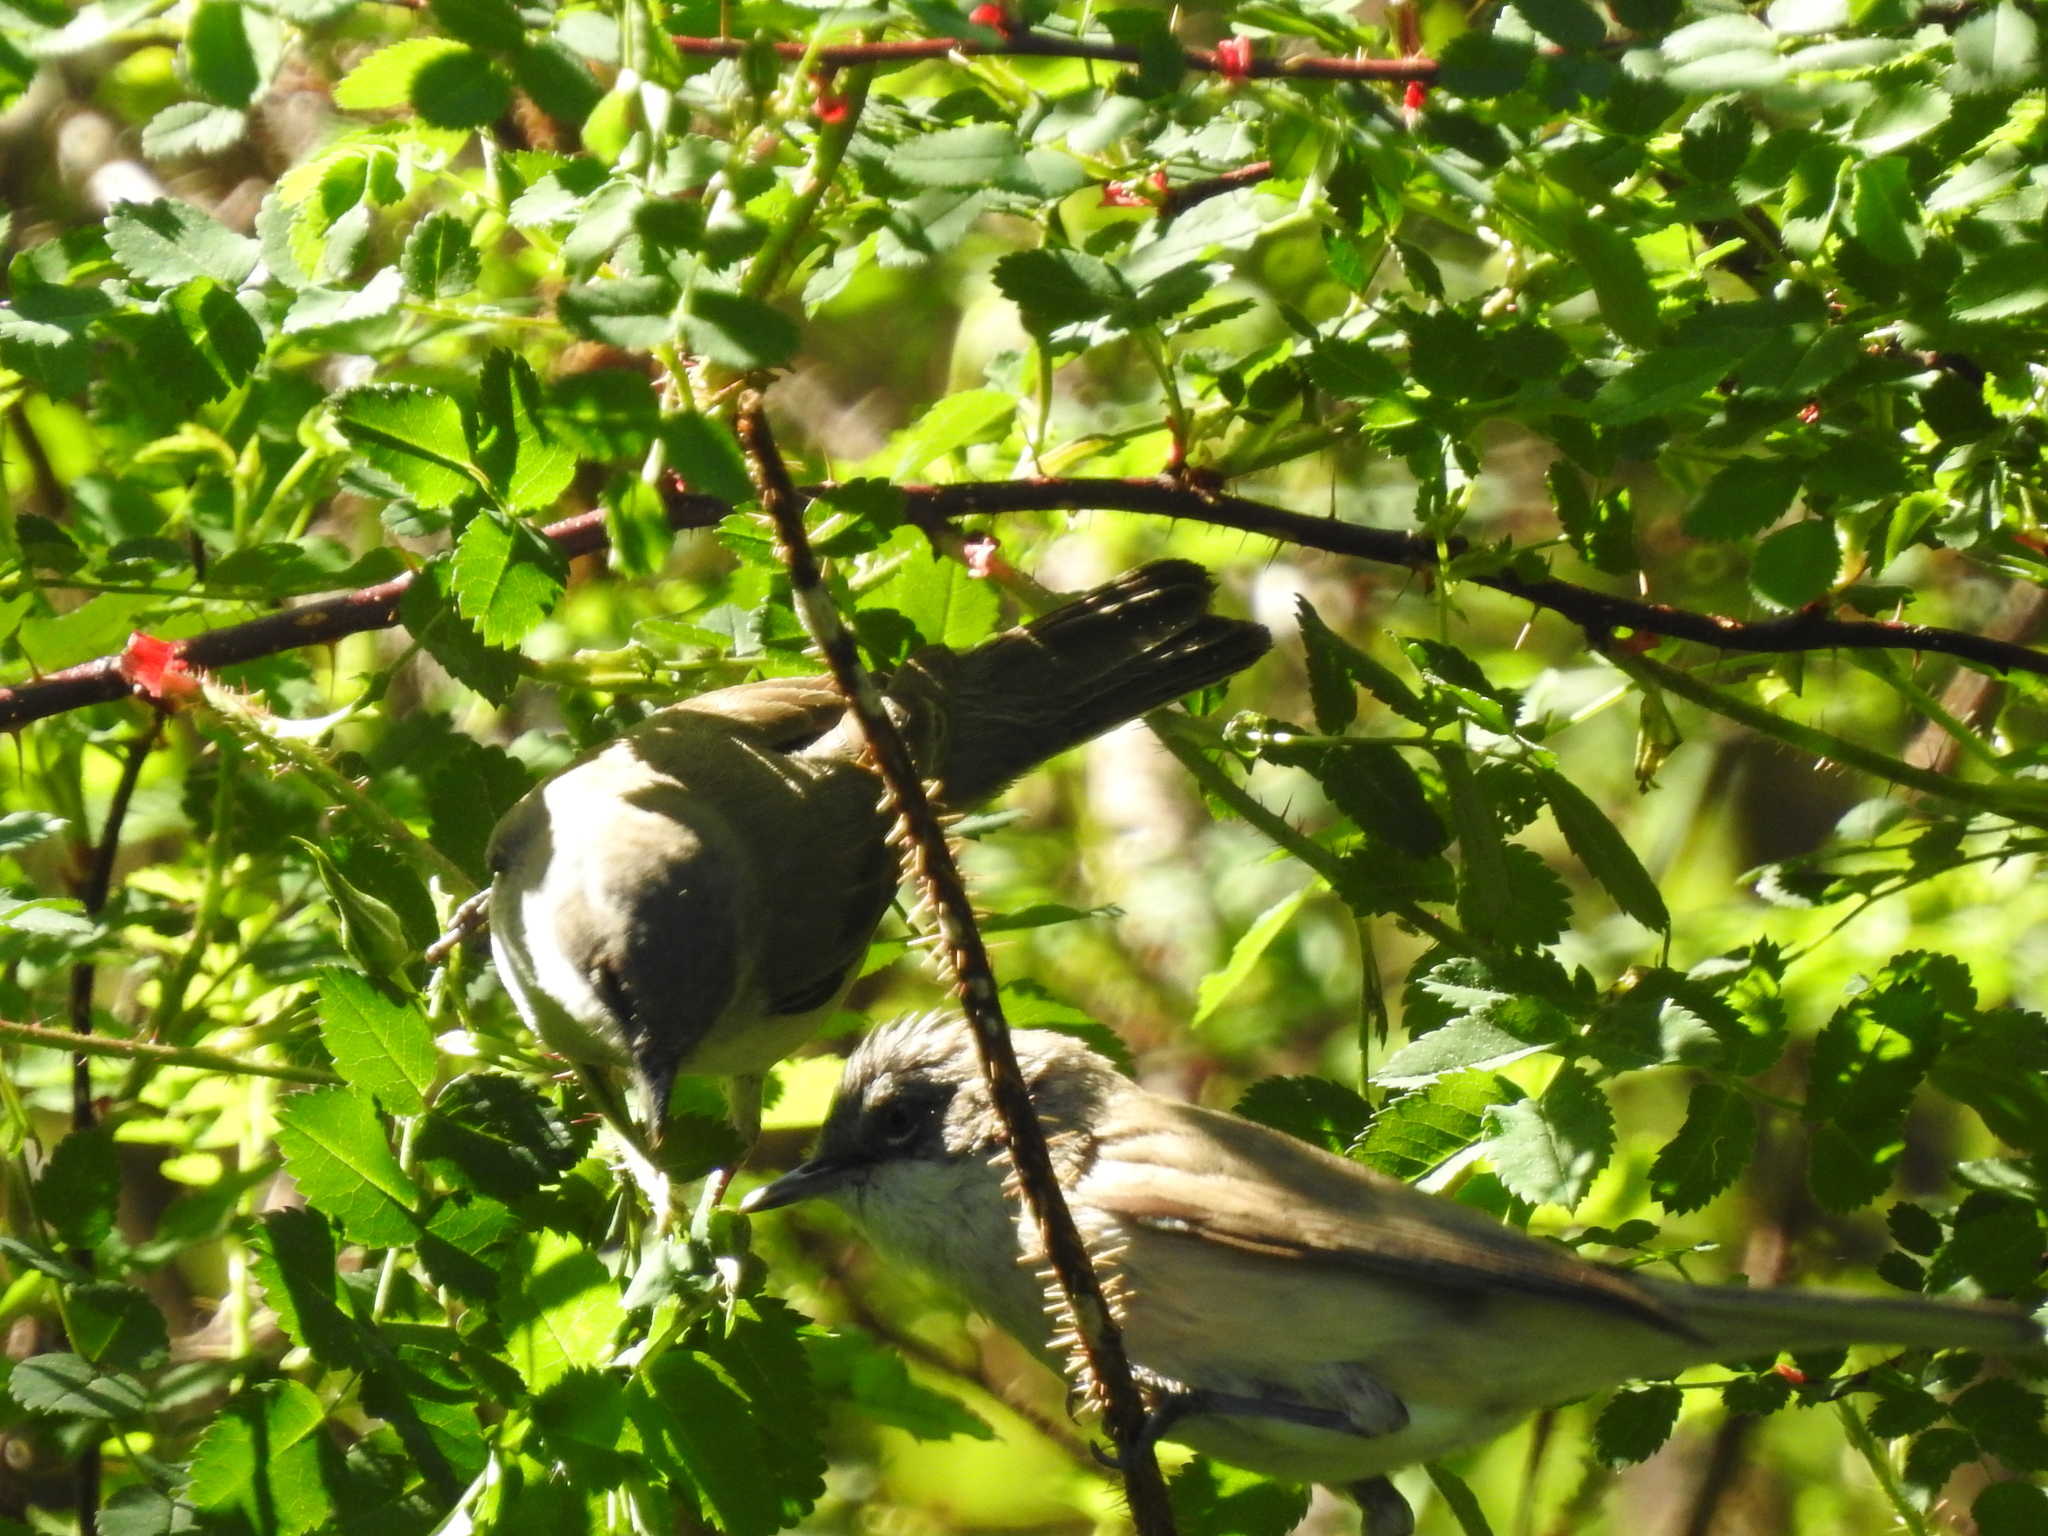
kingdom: Animalia
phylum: Chordata
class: Aves
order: Passeriformes
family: Sylviidae
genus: Sylvia
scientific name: Sylvia curruca
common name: Lesser whitethroat
